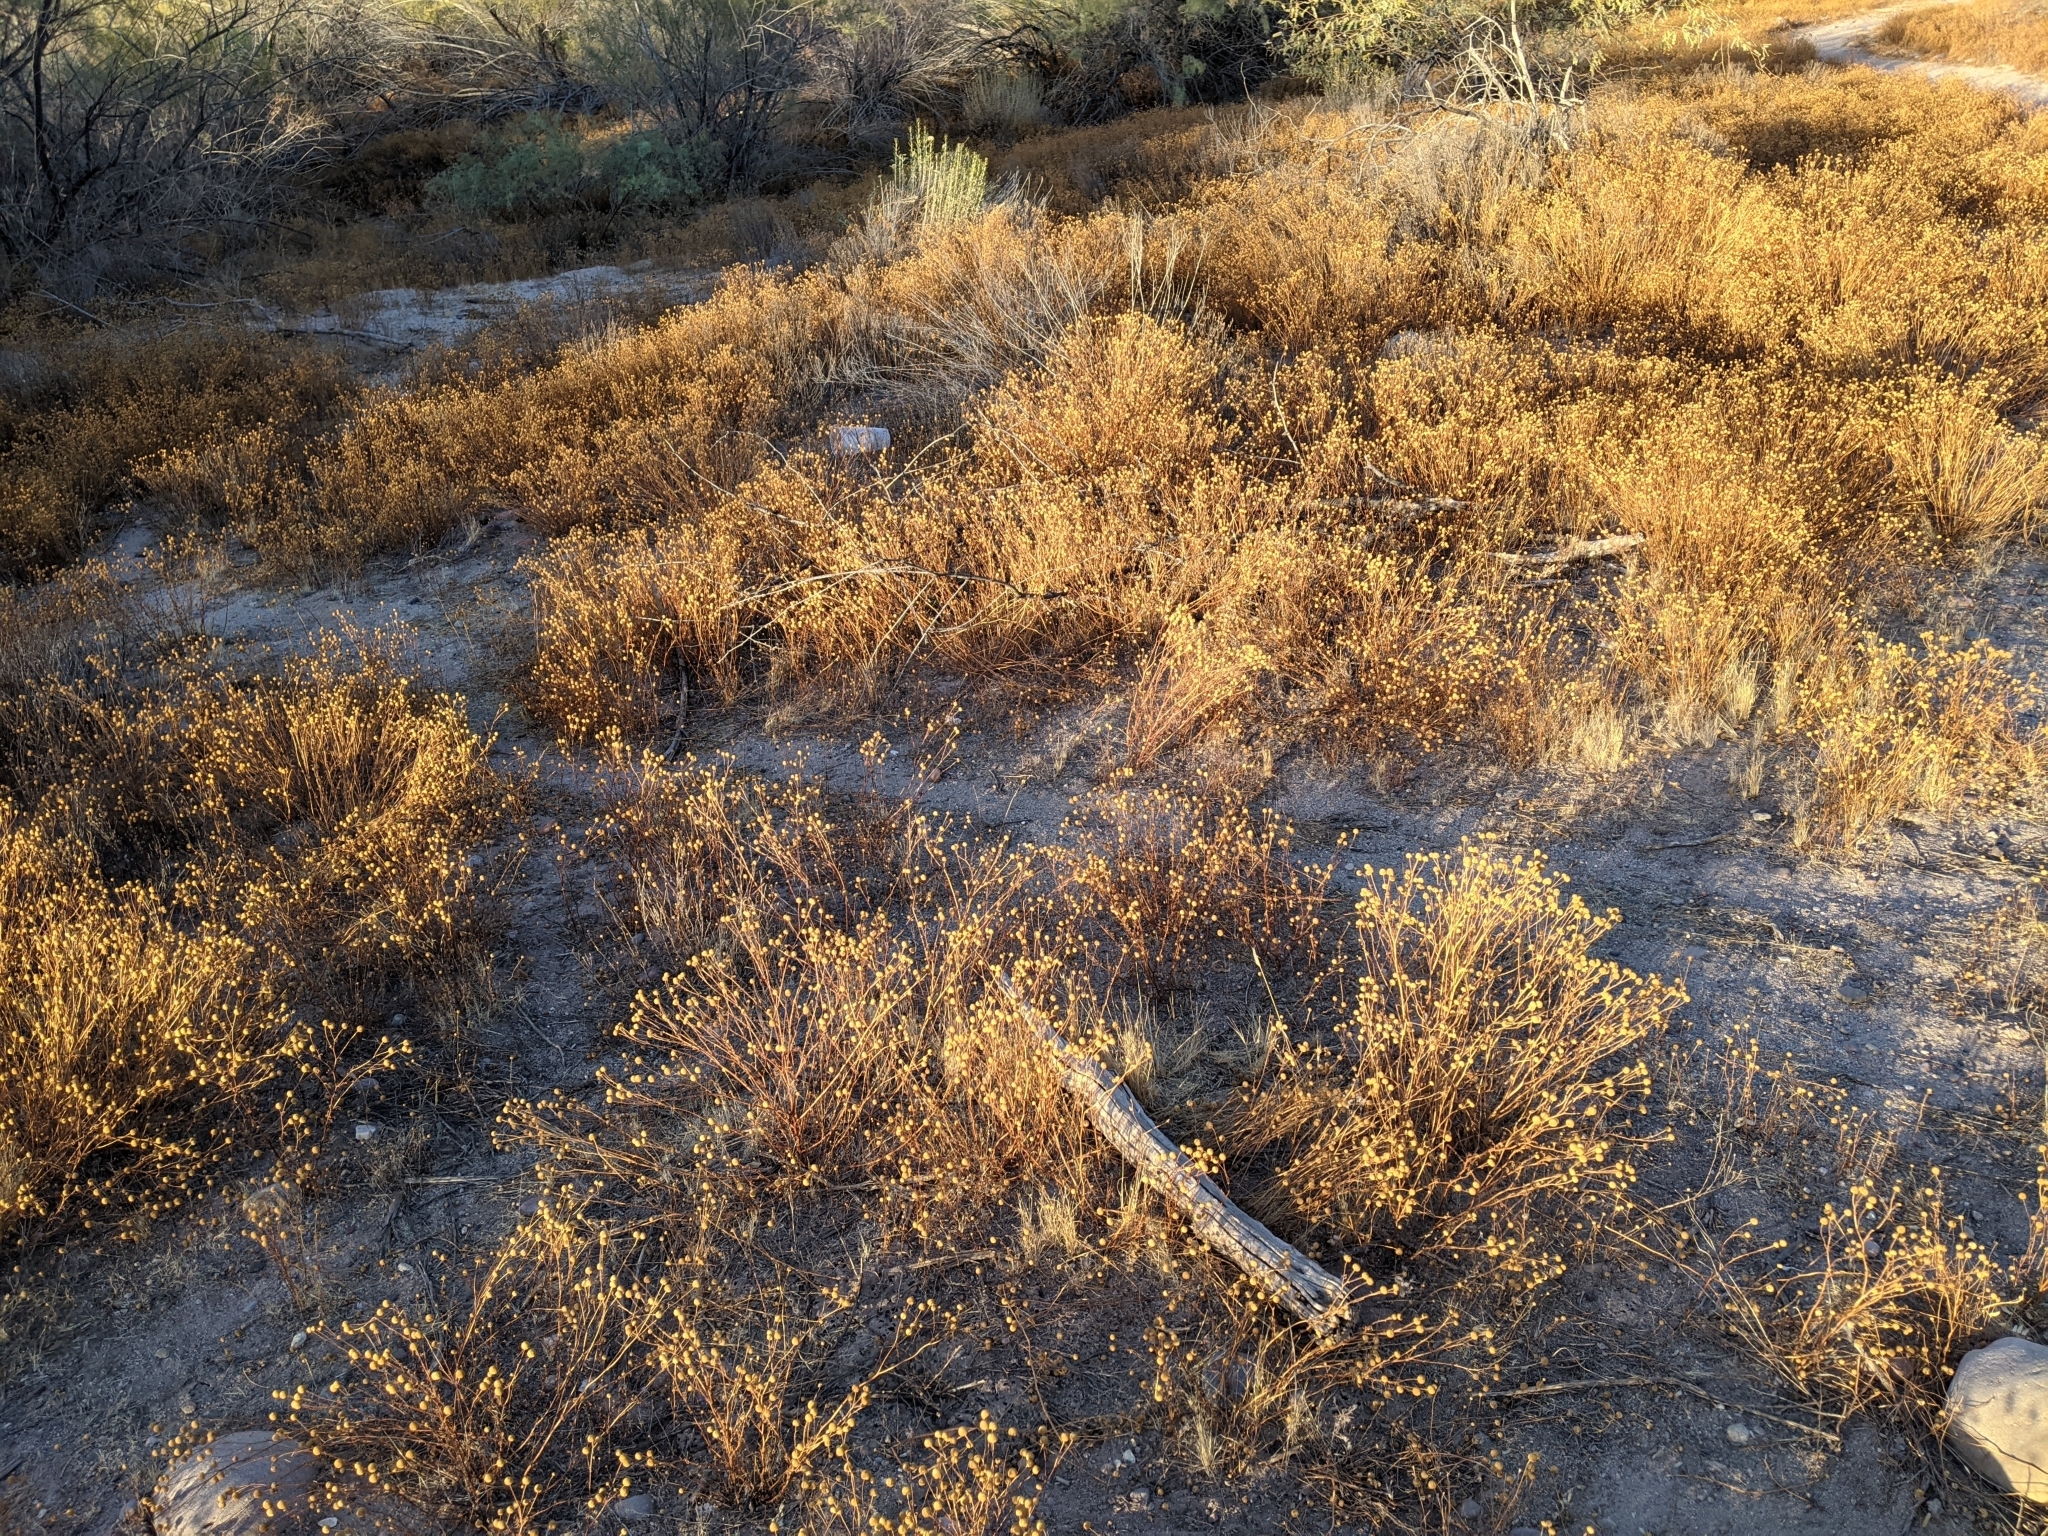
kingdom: Plantae
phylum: Tracheophyta
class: Magnoliopsida
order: Asterales
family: Asteraceae
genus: Oncosiphon
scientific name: Oncosiphon pilulifer
